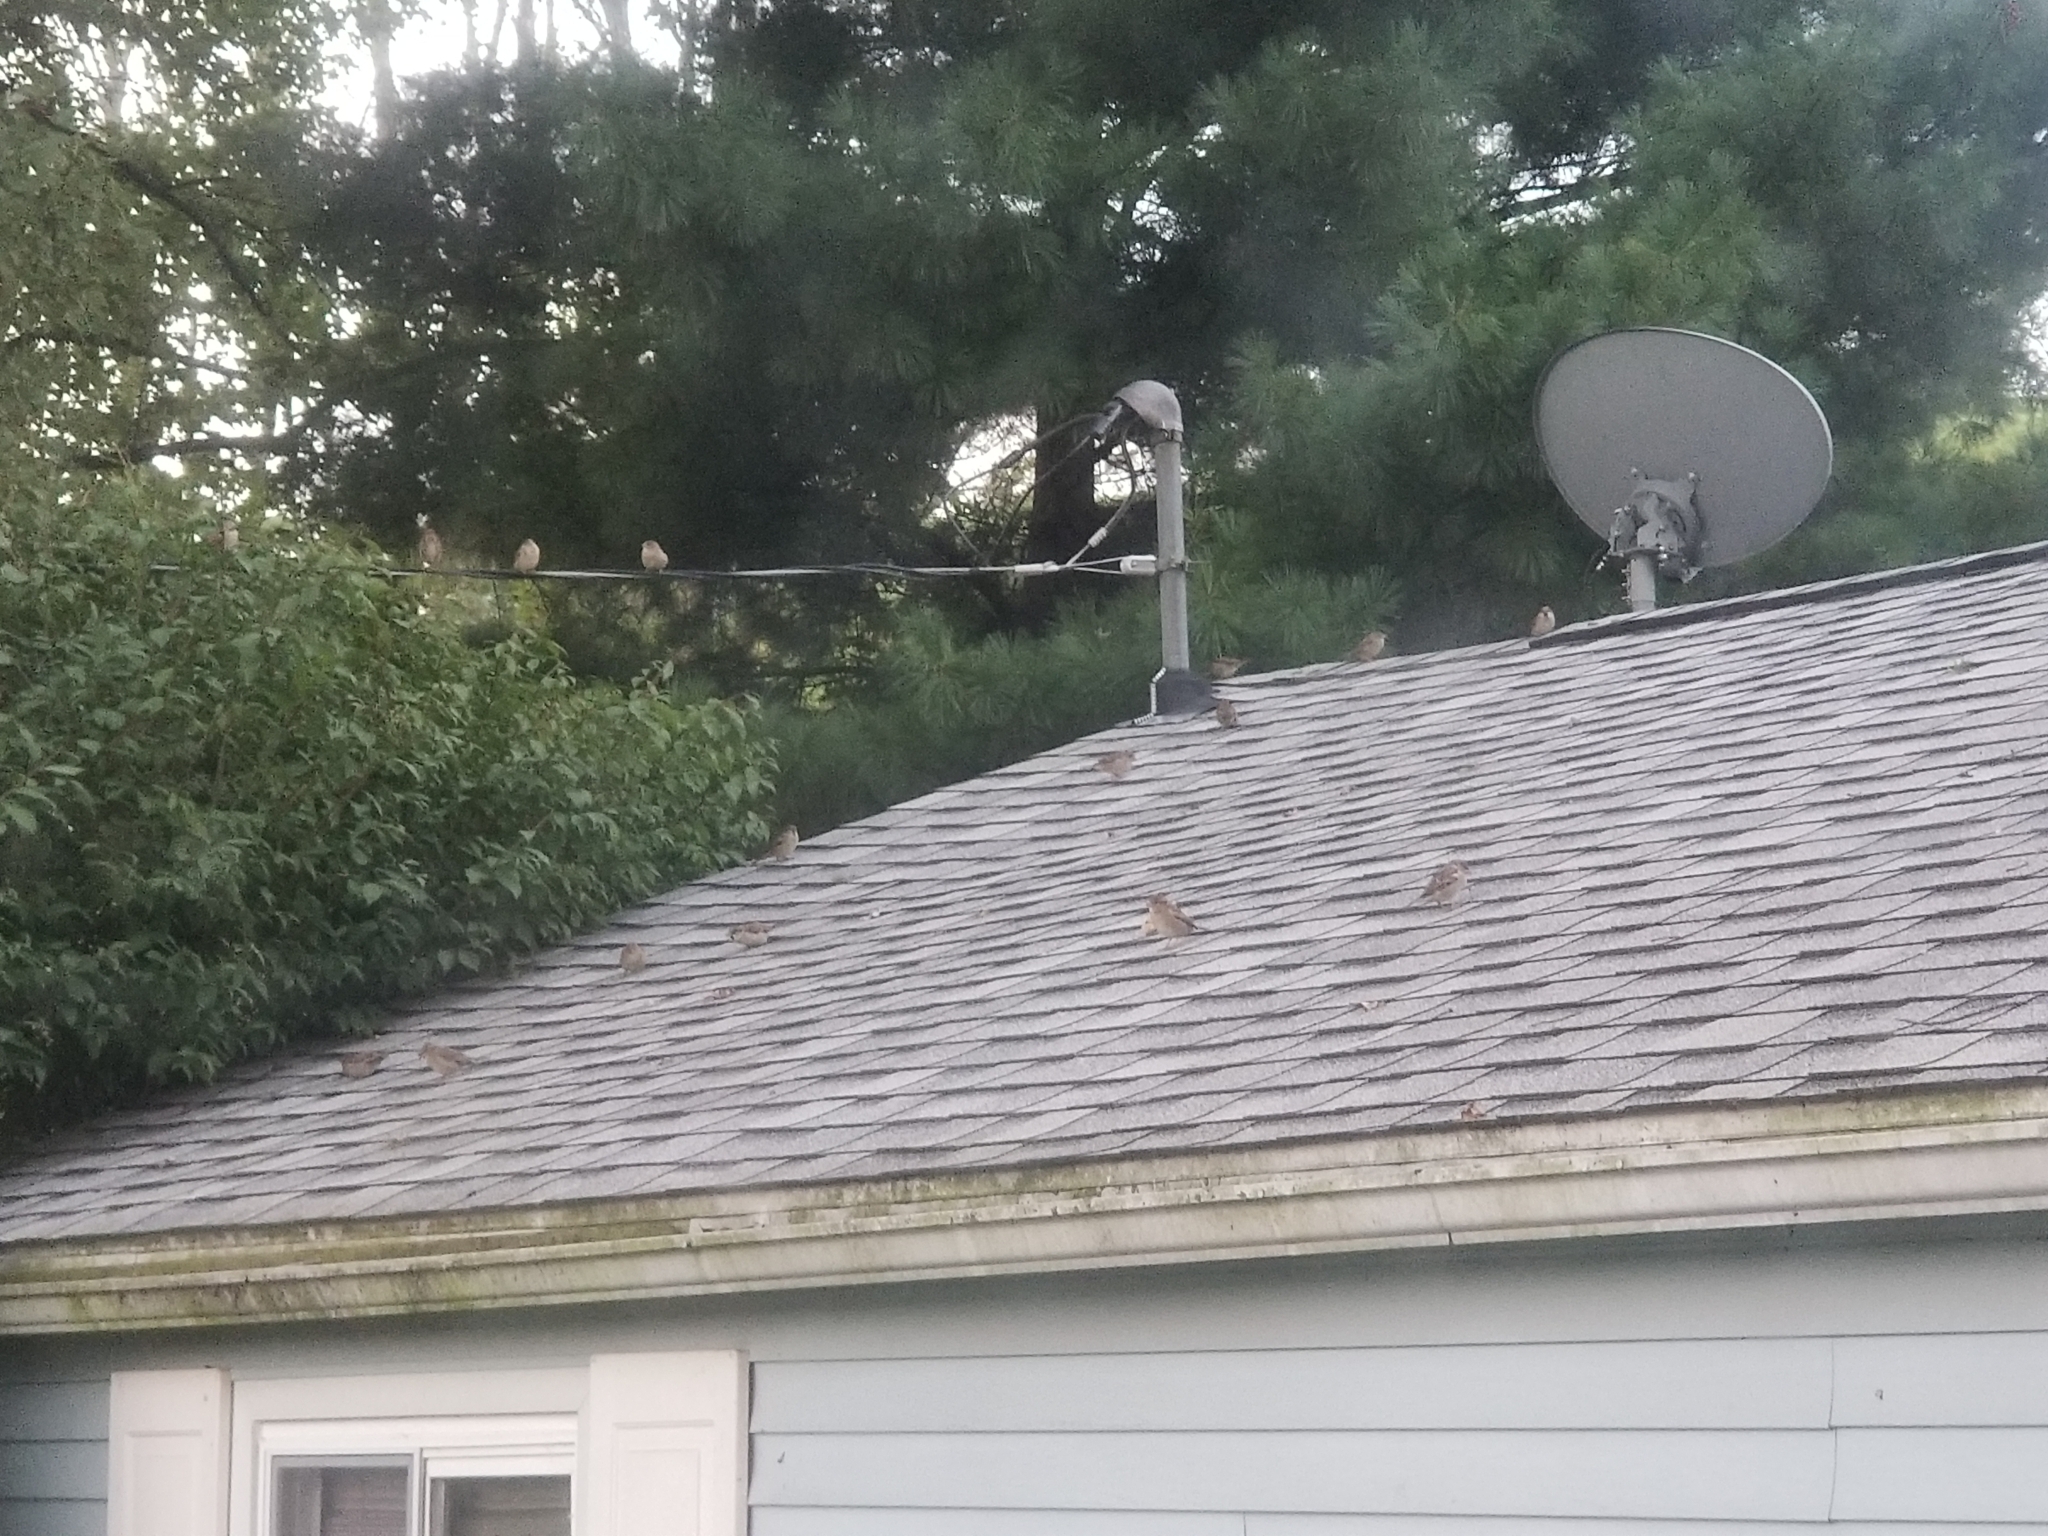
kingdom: Animalia
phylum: Chordata
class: Aves
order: Passeriformes
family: Passeridae
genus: Passer
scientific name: Passer domesticus
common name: House sparrow
